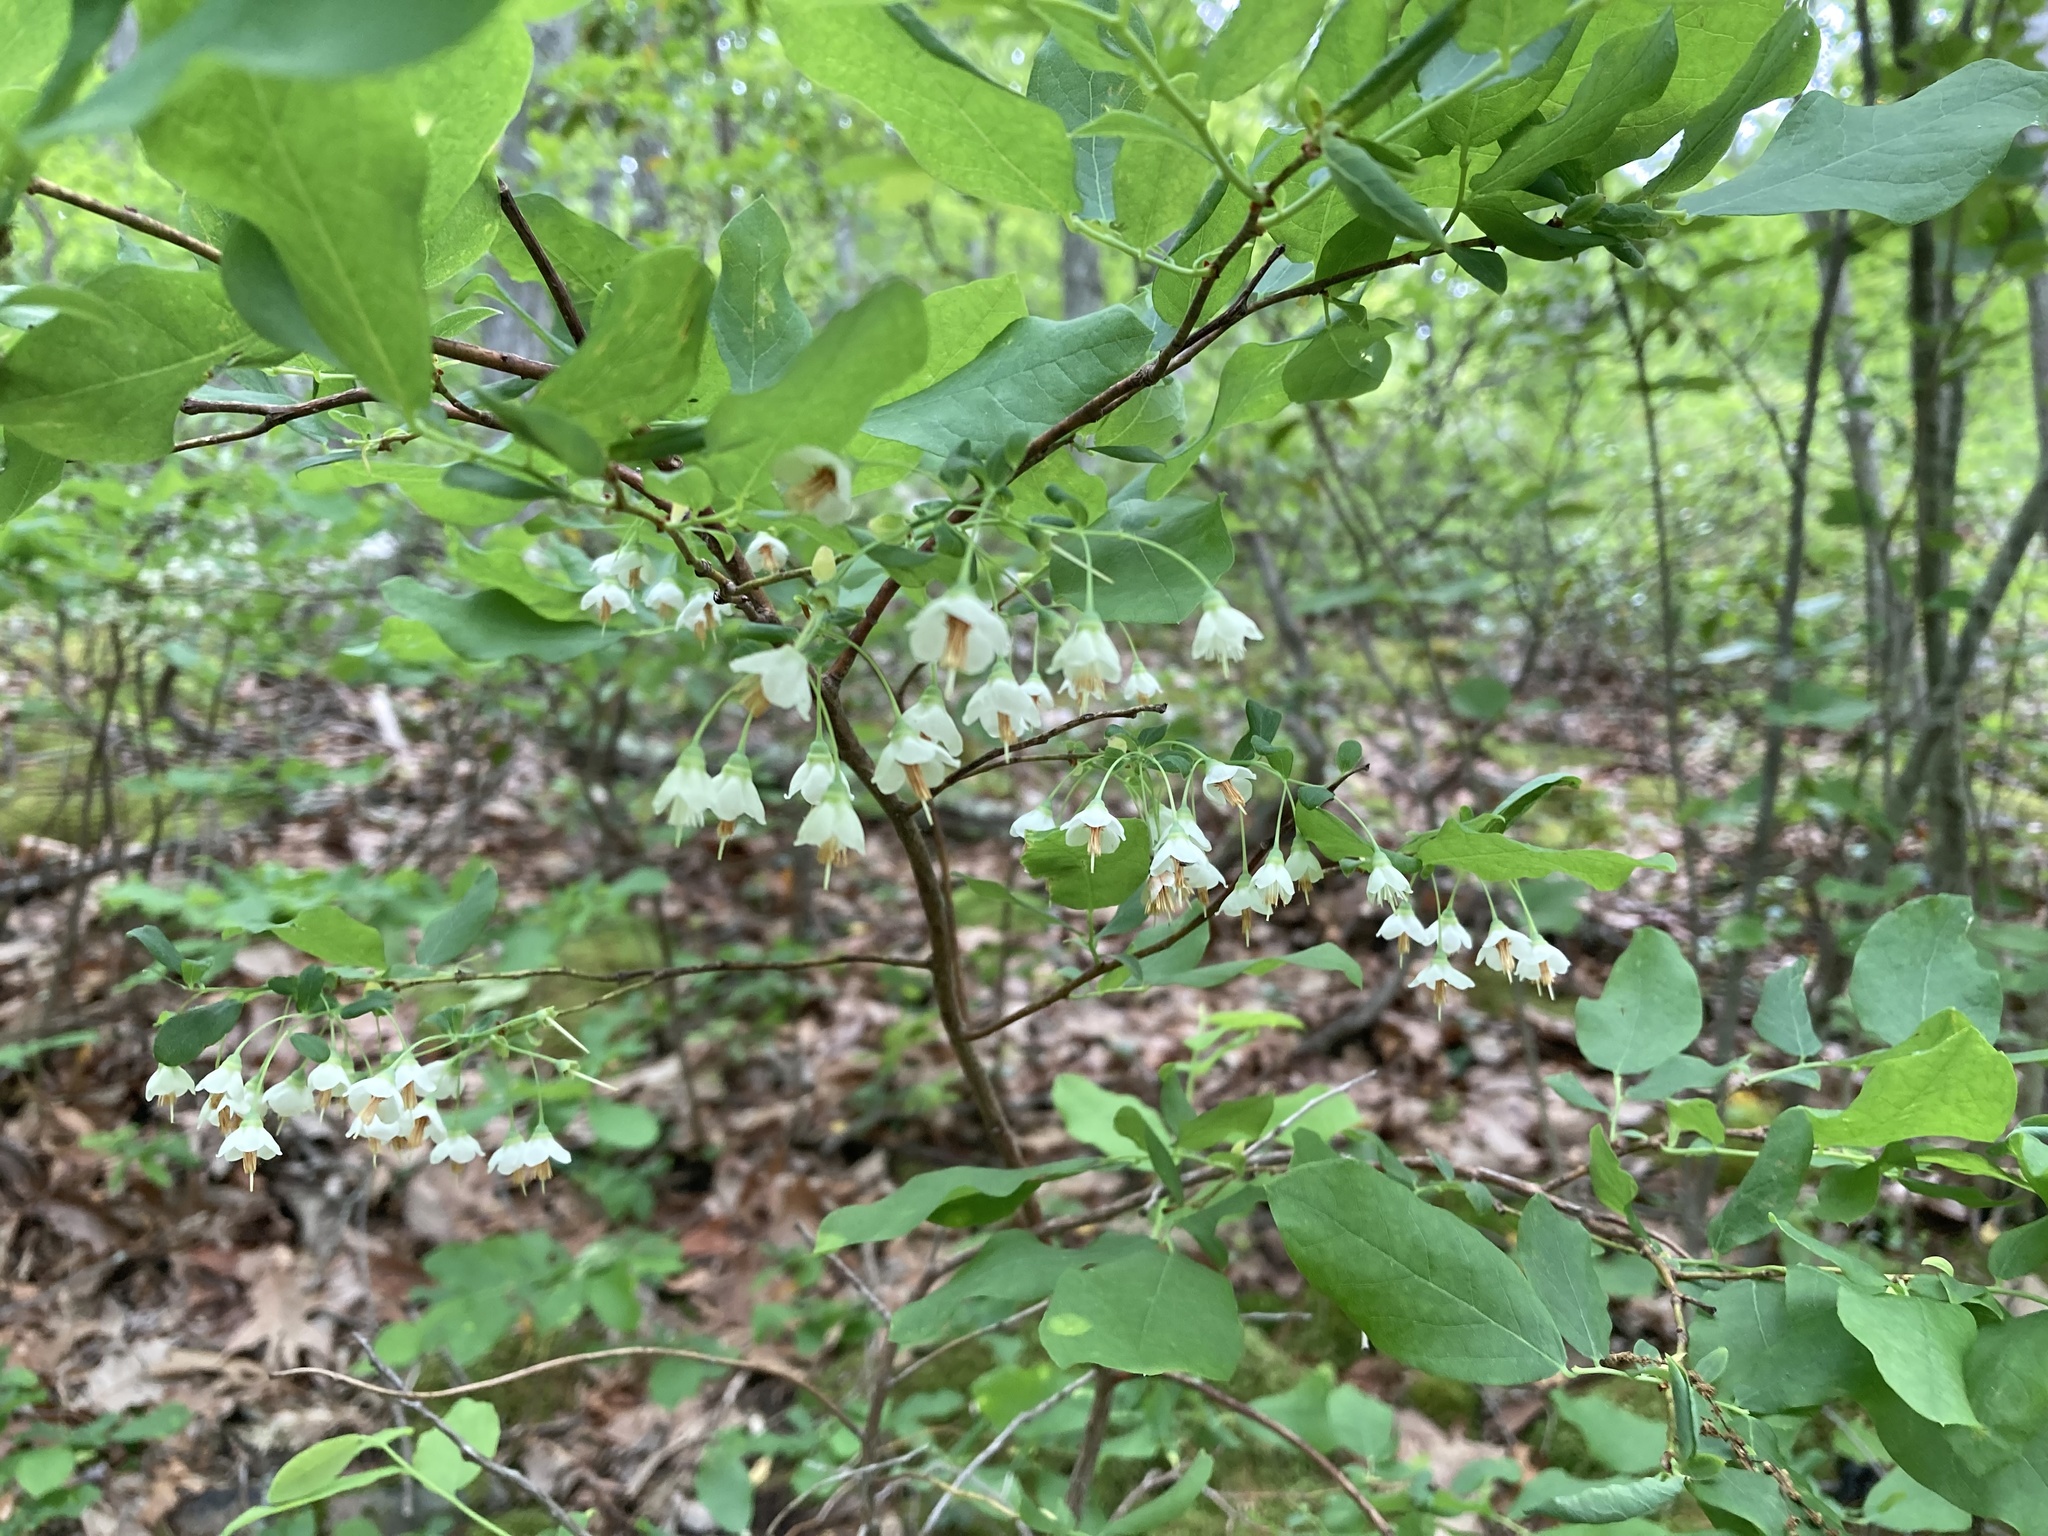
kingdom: Plantae
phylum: Tracheophyta
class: Magnoliopsida
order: Ericales
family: Ericaceae
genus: Vaccinium
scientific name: Vaccinium stamineum
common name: Deerberry
